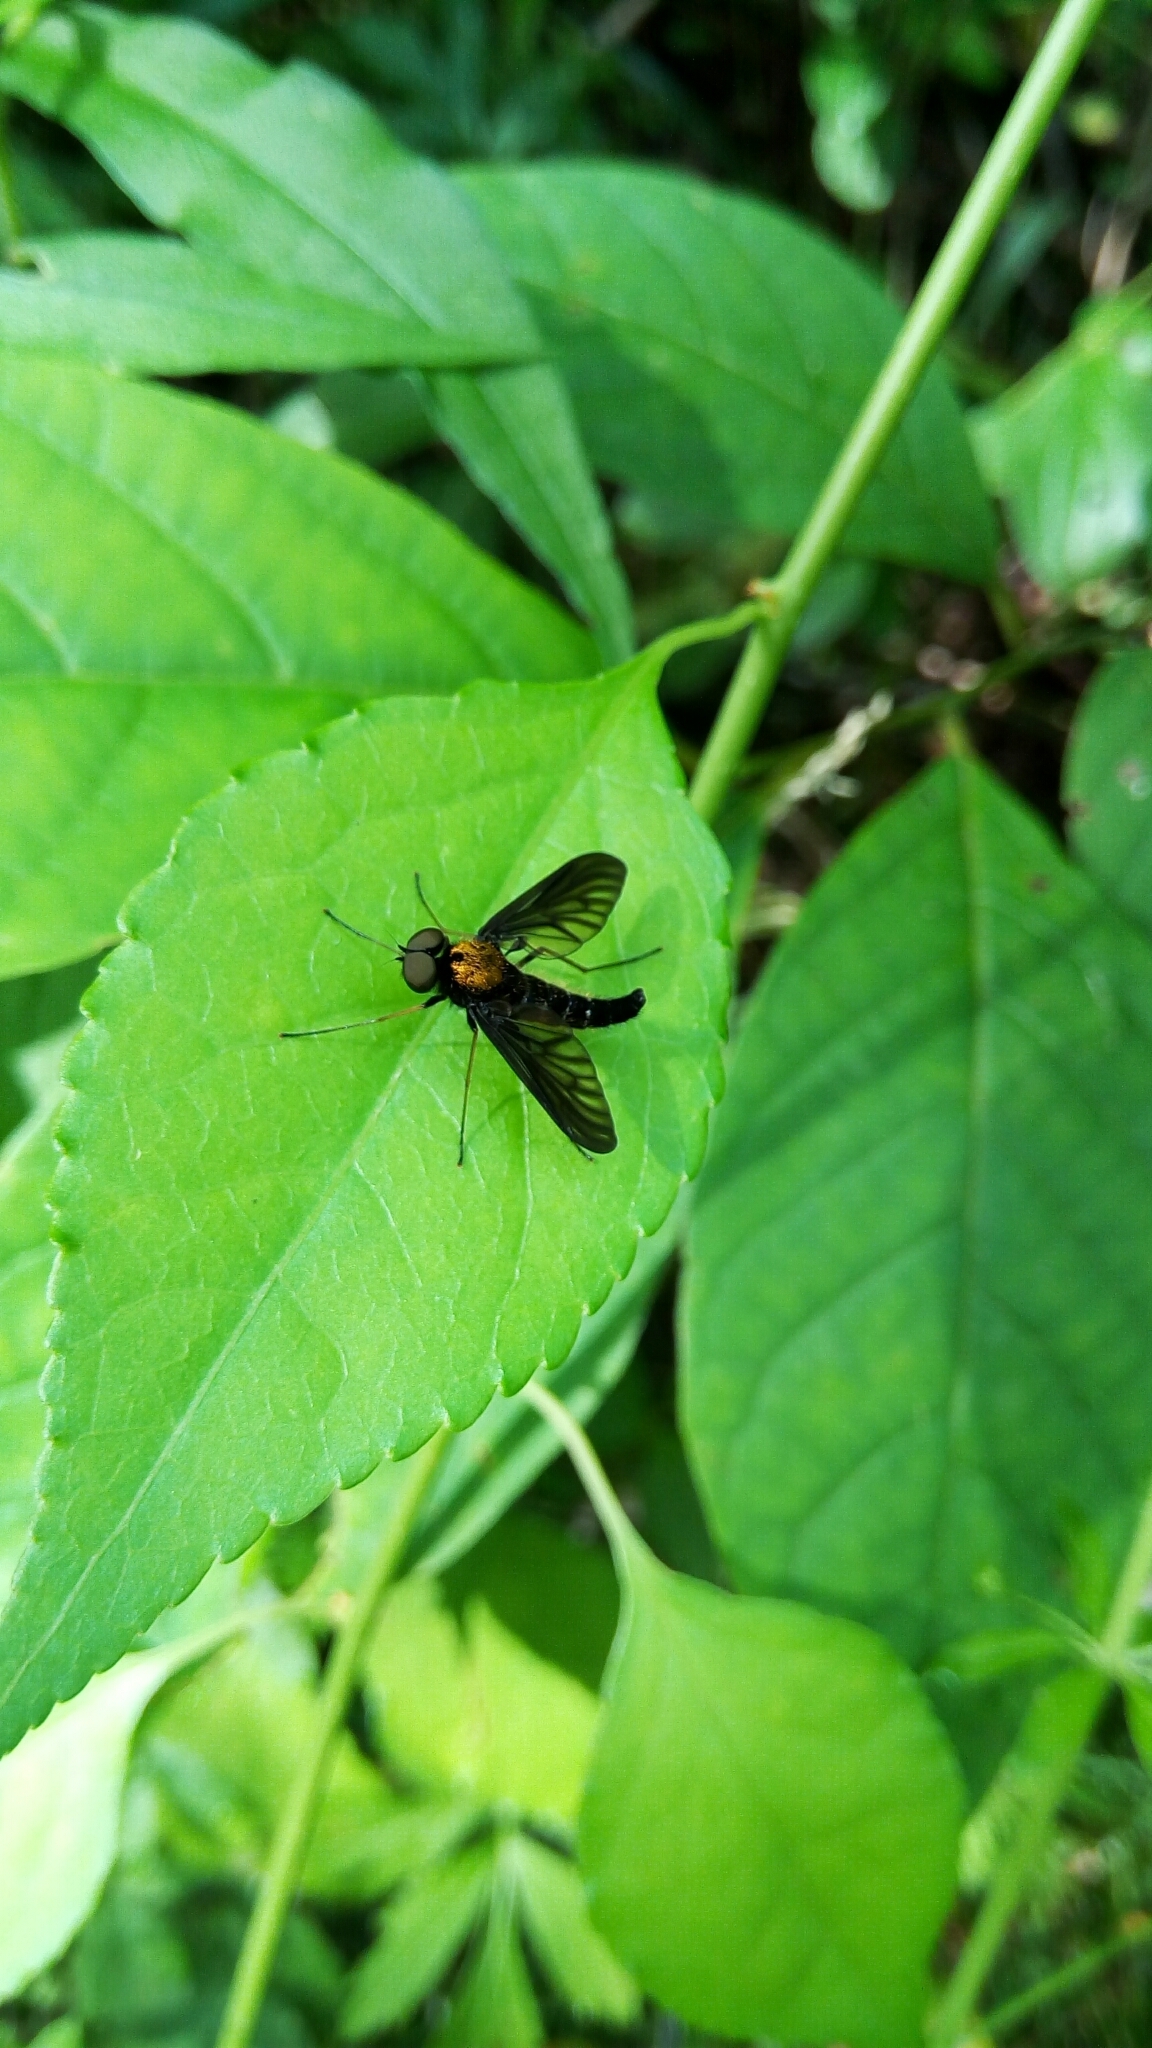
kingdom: Animalia
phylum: Arthropoda
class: Insecta
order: Diptera
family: Rhagionidae
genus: Chrysopilus
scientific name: Chrysopilus thoracicus
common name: Golden-backed snipe fly
